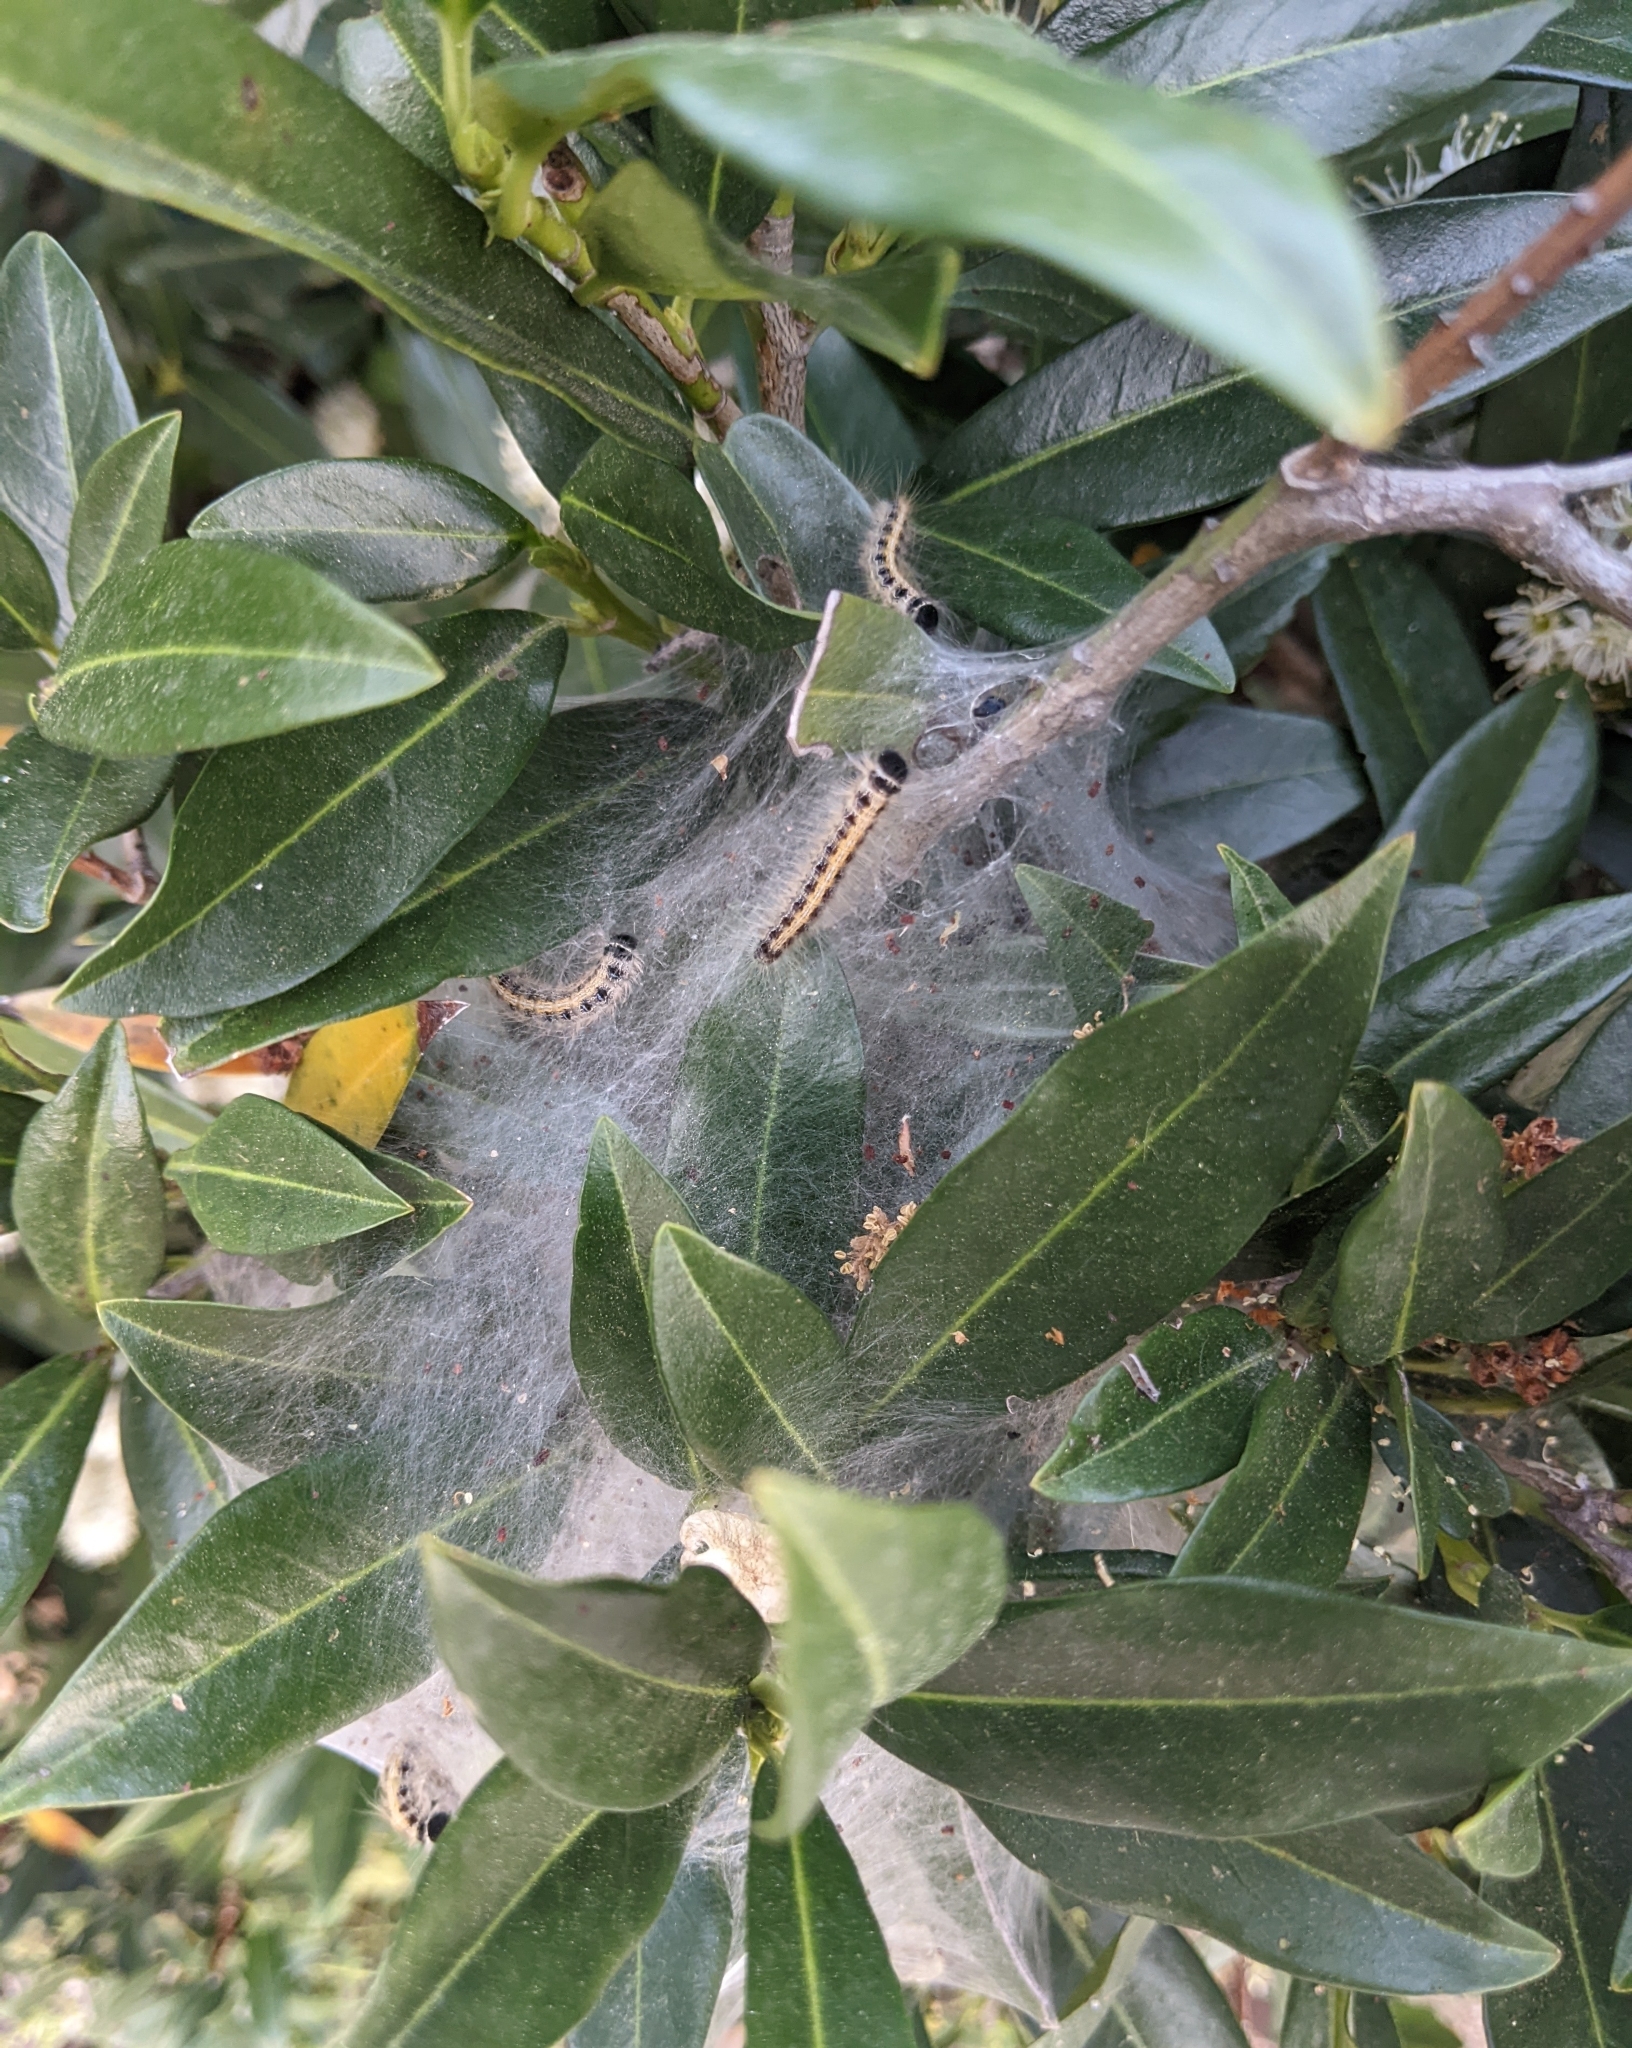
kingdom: Animalia
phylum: Arthropoda
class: Insecta
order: Lepidoptera
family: Lasiocampidae
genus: Malacosoma
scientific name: Malacosoma americana
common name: Eastern tent caterpillar moth
